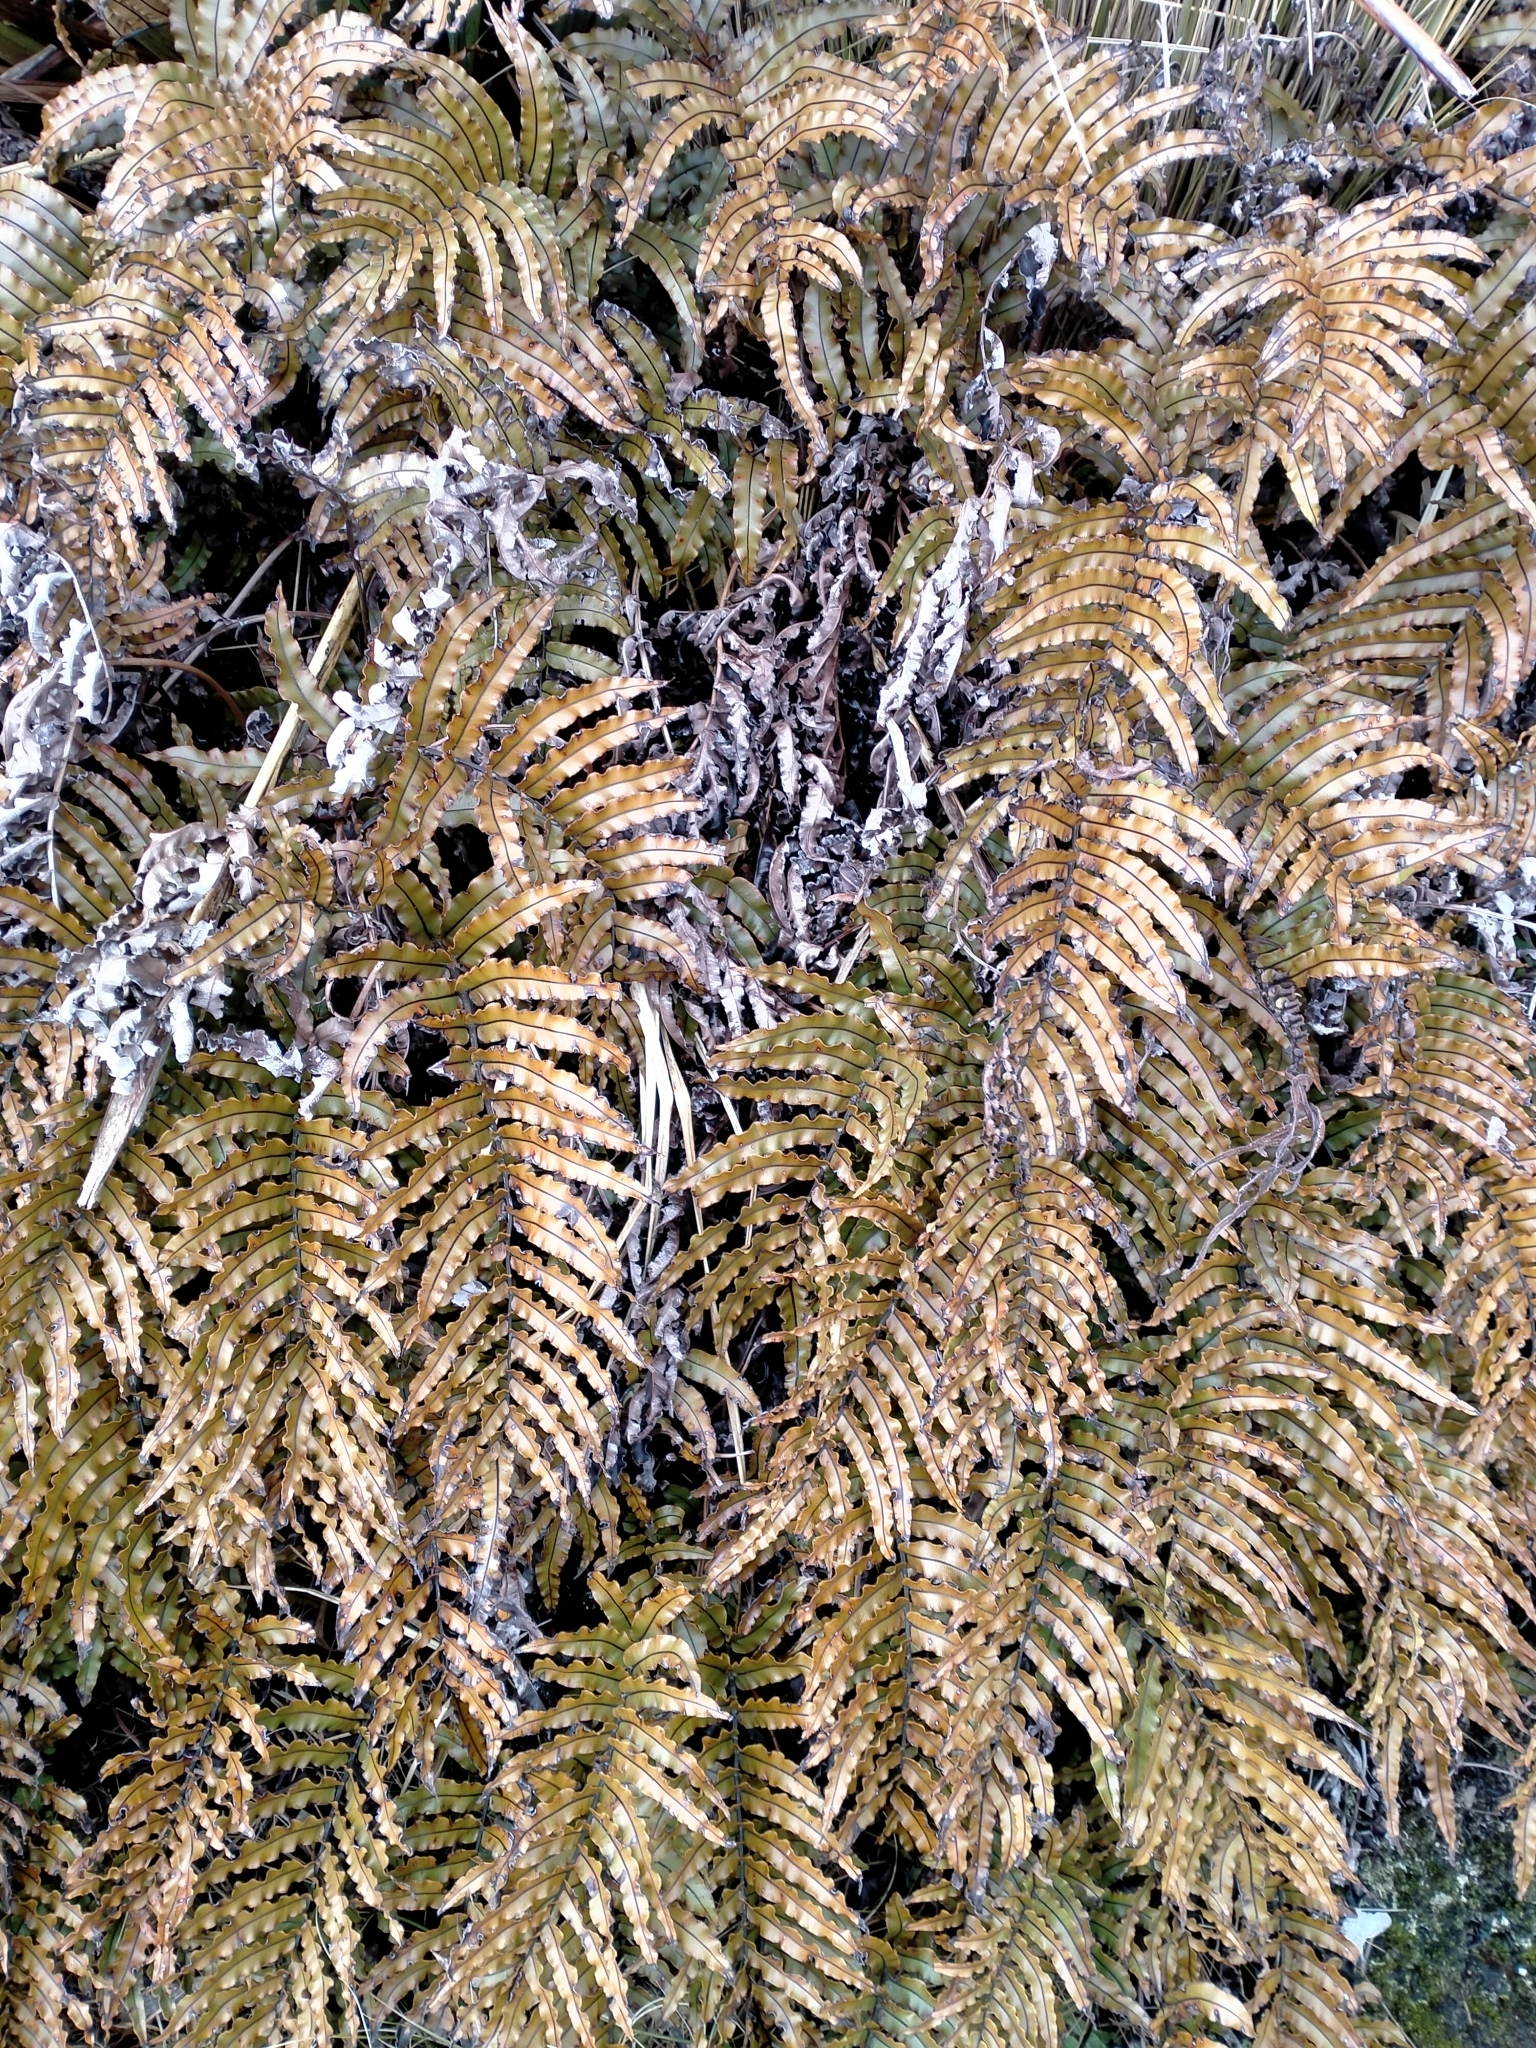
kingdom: Plantae
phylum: Tracheophyta
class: Polypodiopsida
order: Polypodiales
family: Blechnaceae
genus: Parablechnum
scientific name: Parablechnum montanum
